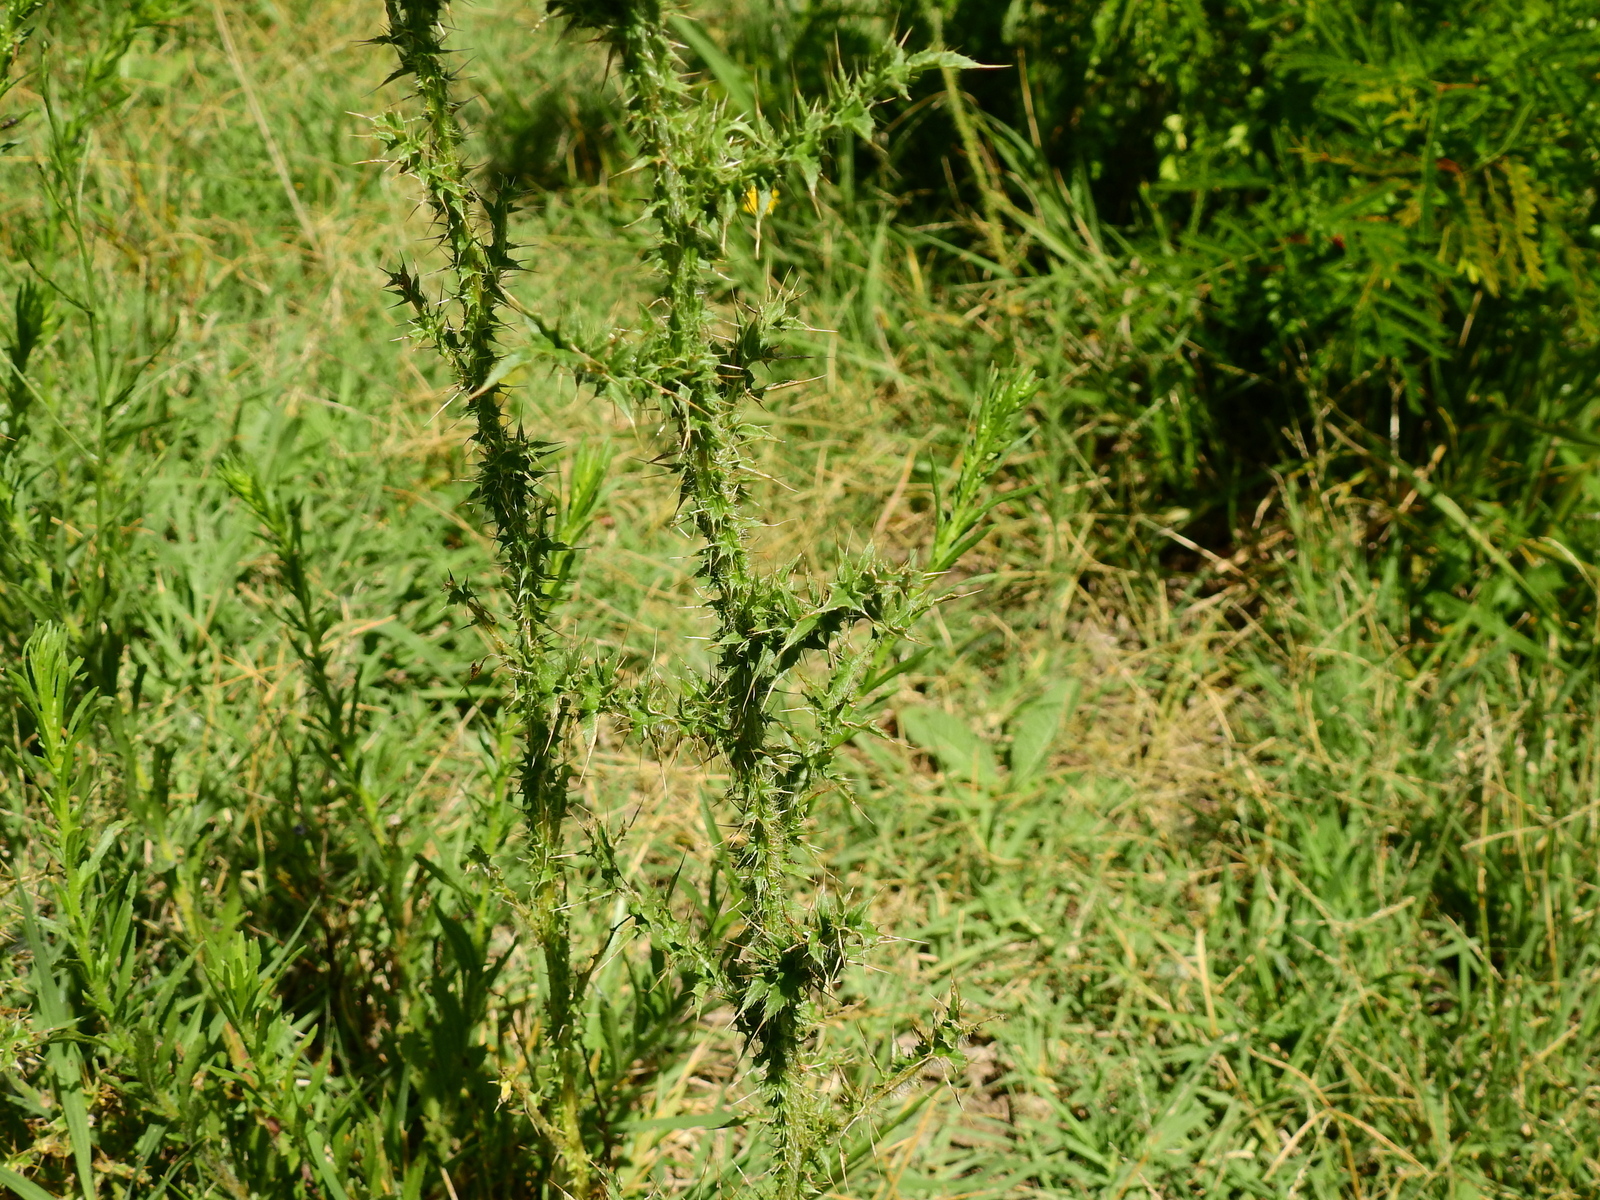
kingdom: Plantae
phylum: Tracheophyta
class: Magnoliopsida
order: Asterales
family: Asteraceae
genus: Carduus
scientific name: Carduus acanthoides
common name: Plumeless thistle
